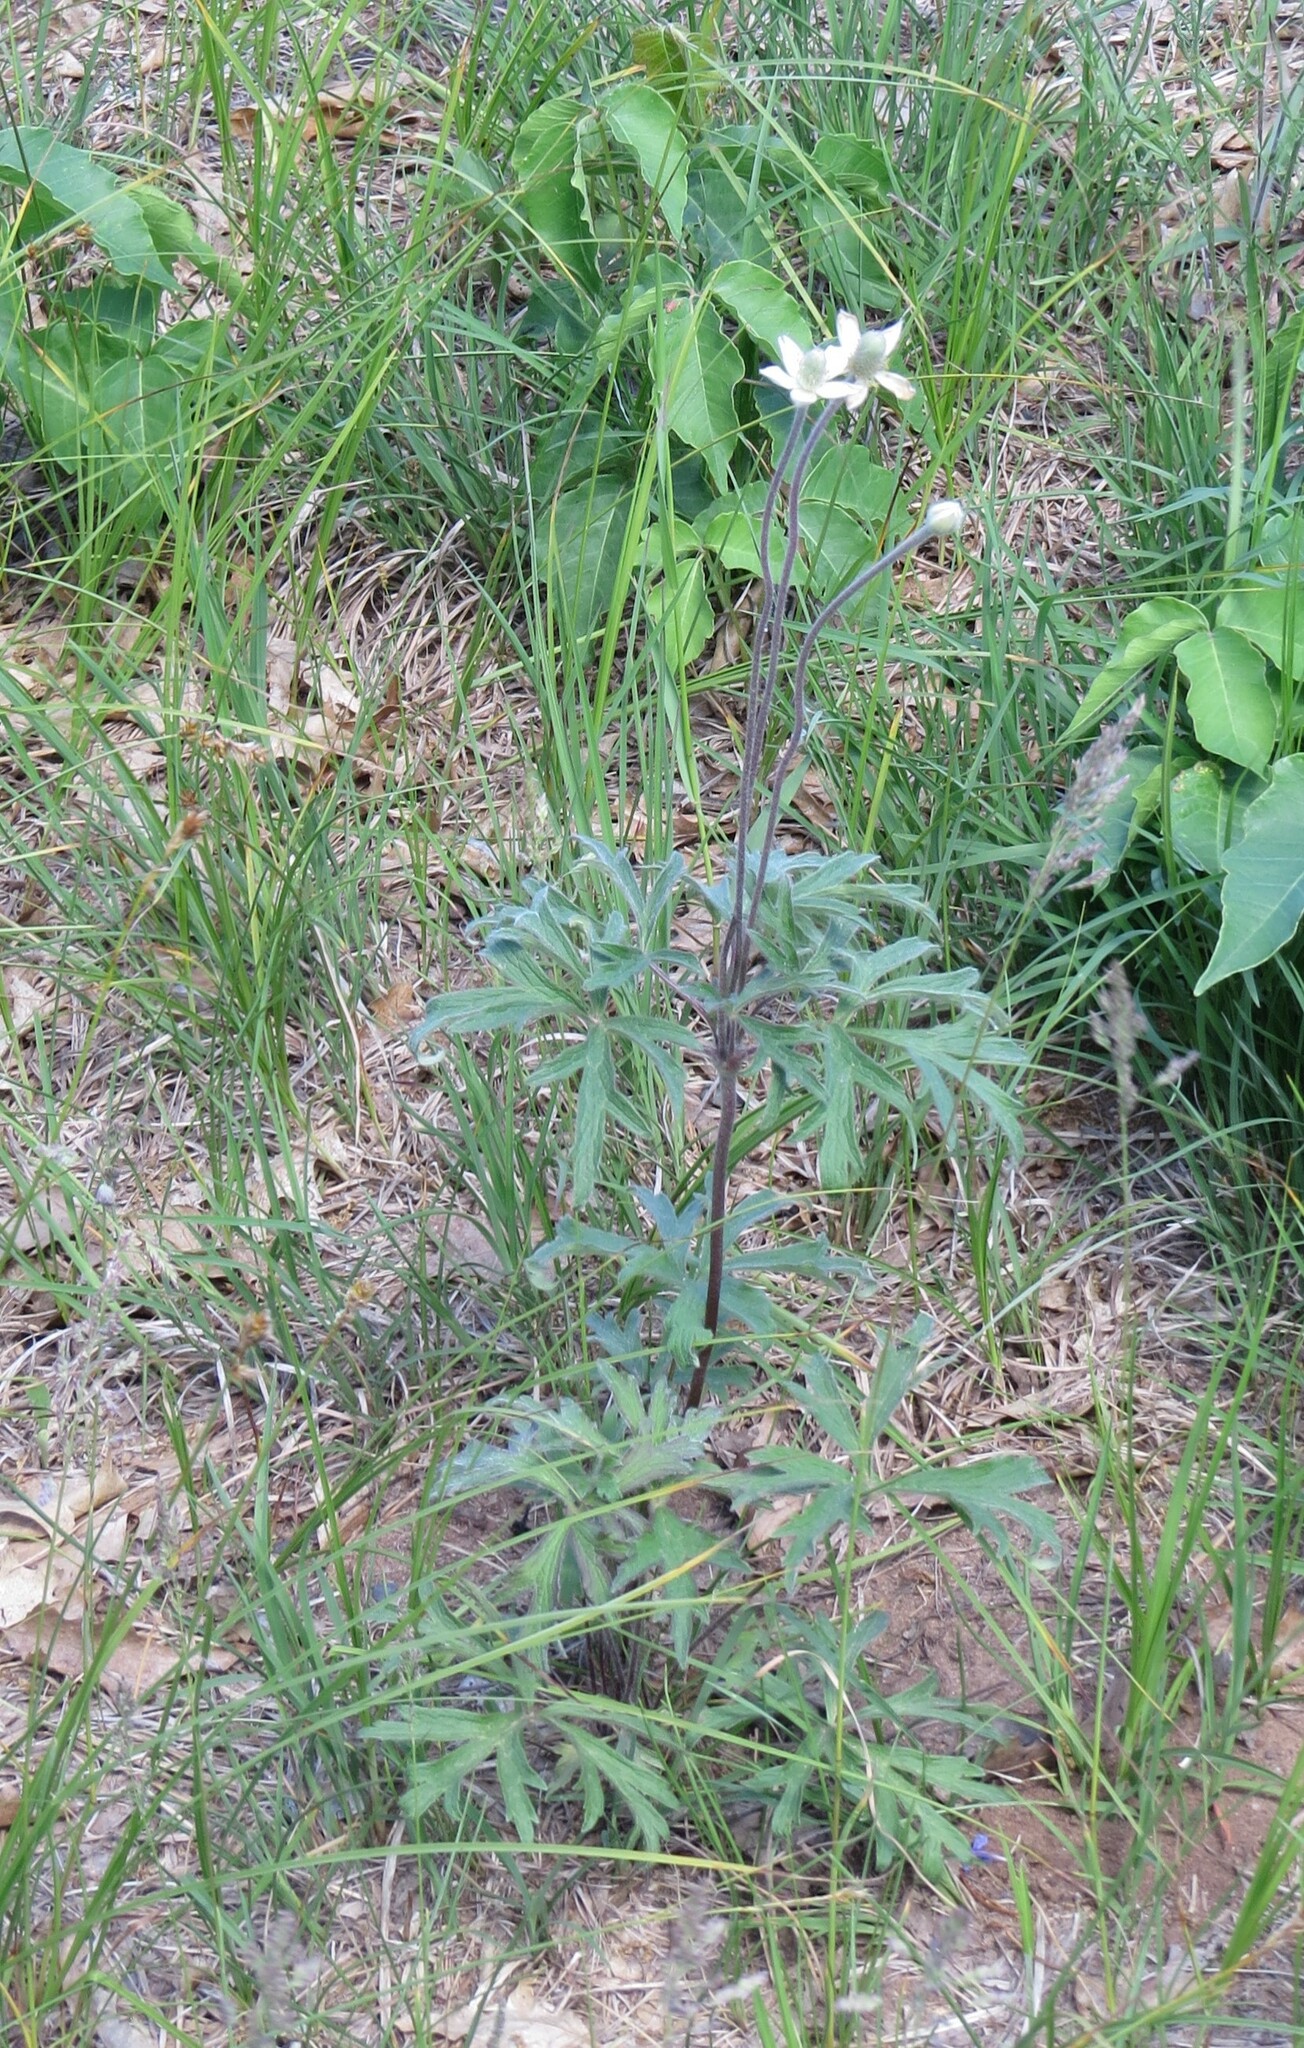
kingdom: Plantae
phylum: Tracheophyta
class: Magnoliopsida
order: Ranunculales
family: Ranunculaceae
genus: Anemone
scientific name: Anemone cylindrica
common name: Candle anemone
